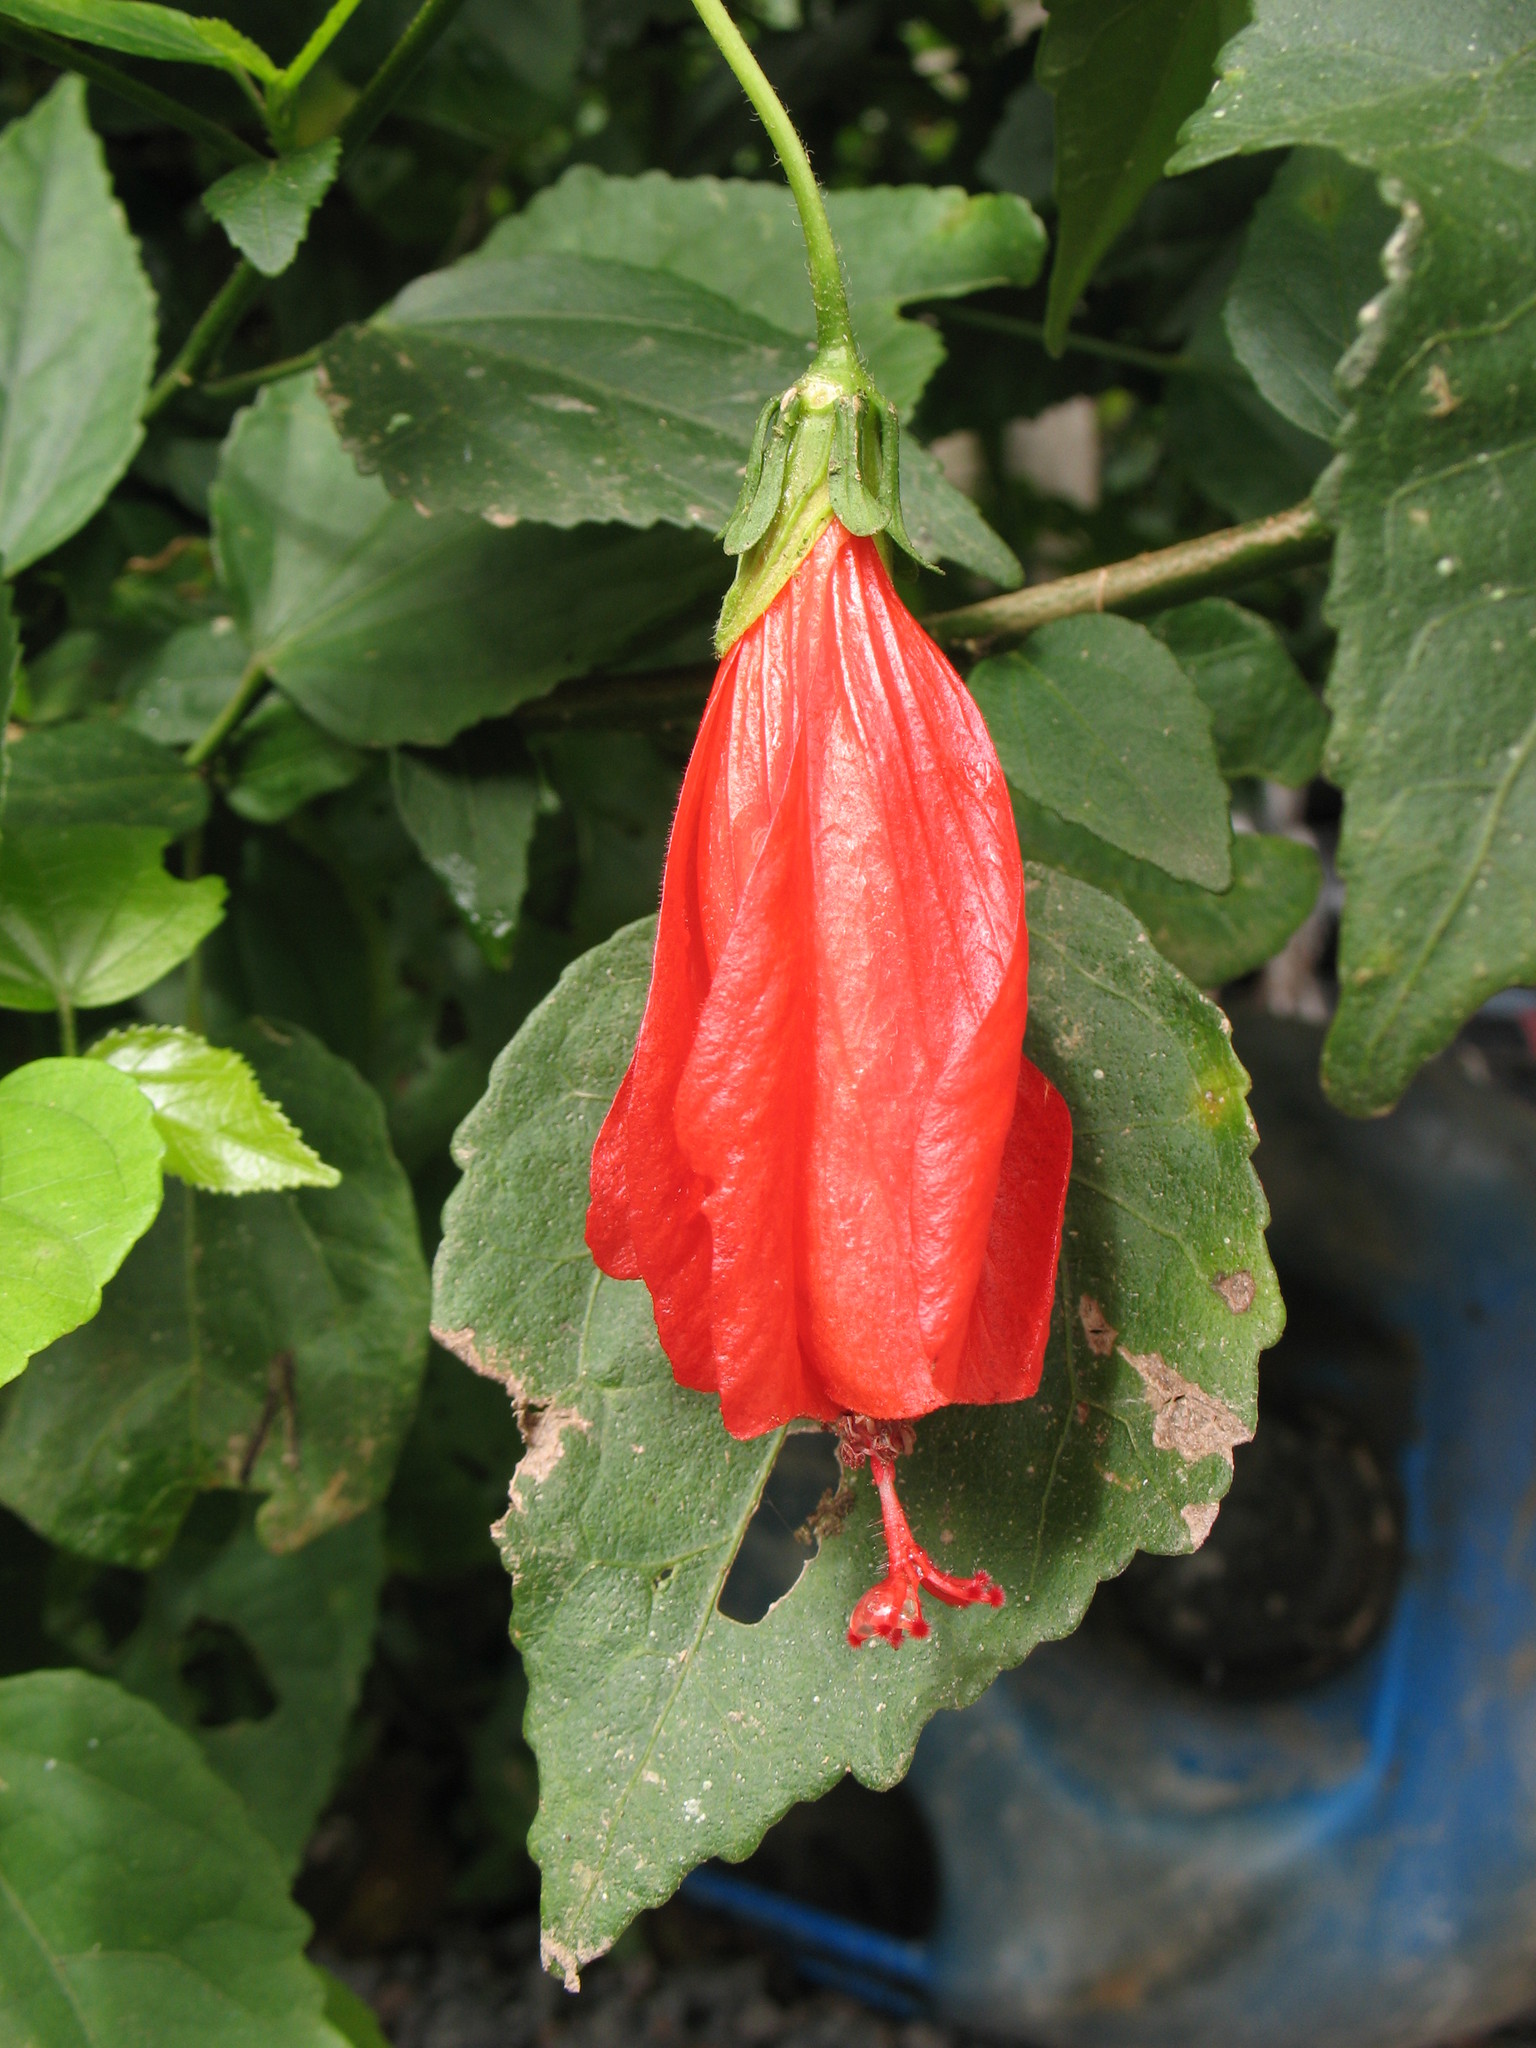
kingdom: Plantae
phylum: Tracheophyta
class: Magnoliopsida
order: Malvales
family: Malvaceae
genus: Malvaviscus
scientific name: Malvaviscus penduliflorus
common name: Mazapan
